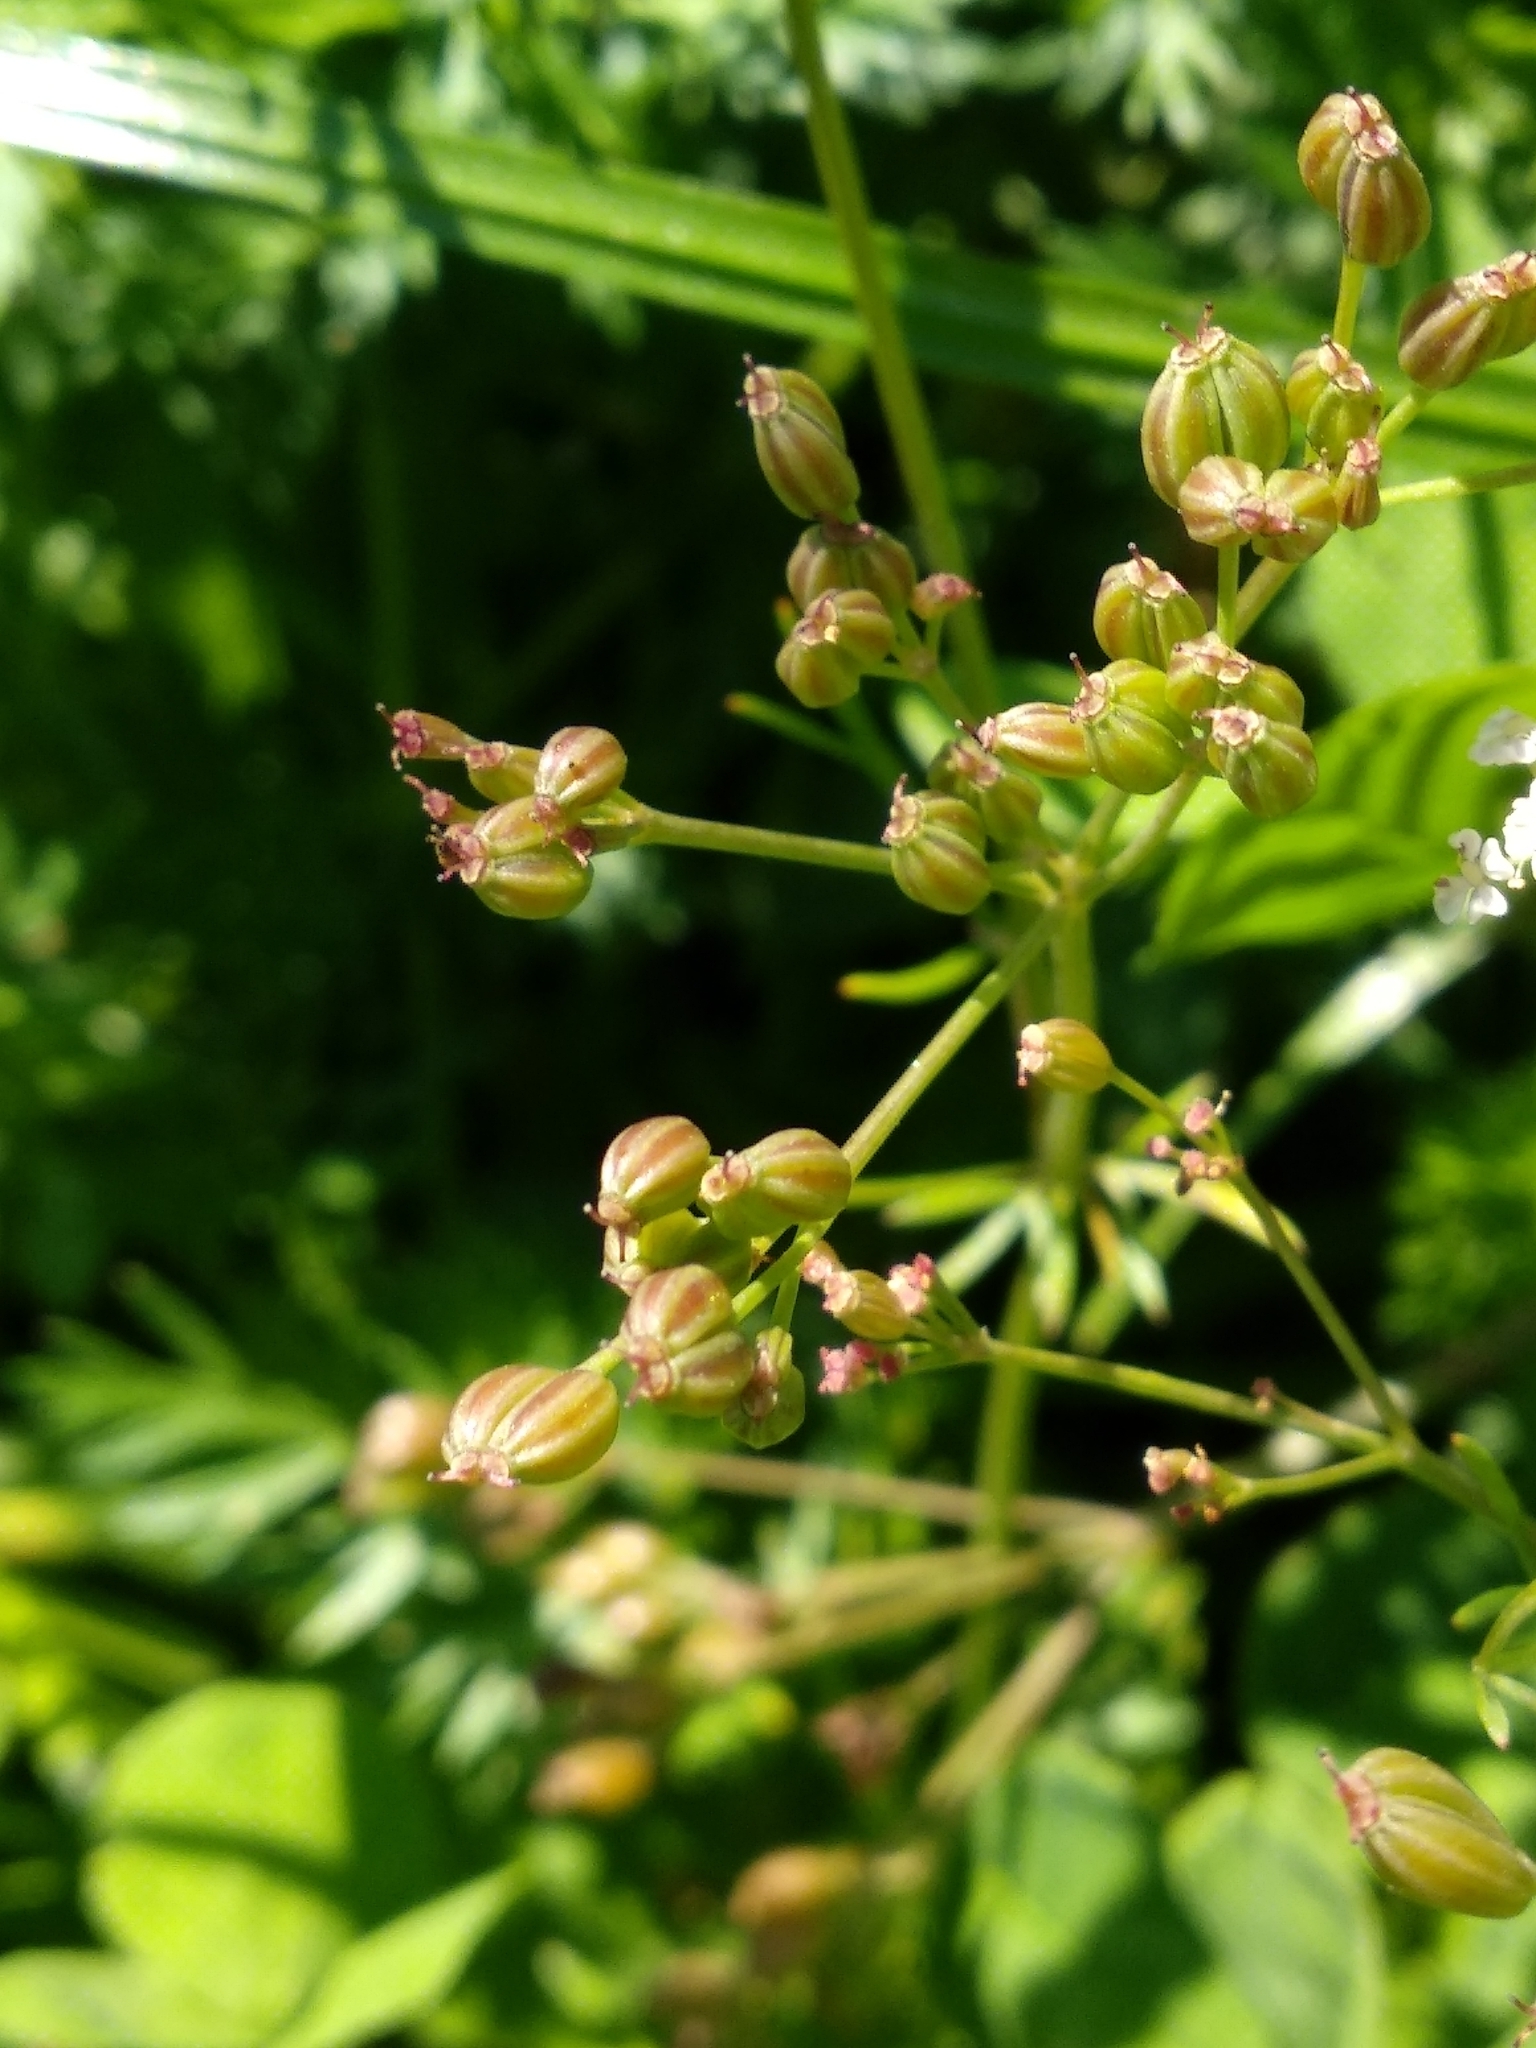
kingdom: Plantae
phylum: Tracheophyta
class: Magnoliopsida
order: Apiales
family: Apiaceae
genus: Carum
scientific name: Carum carvi
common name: Caraway
